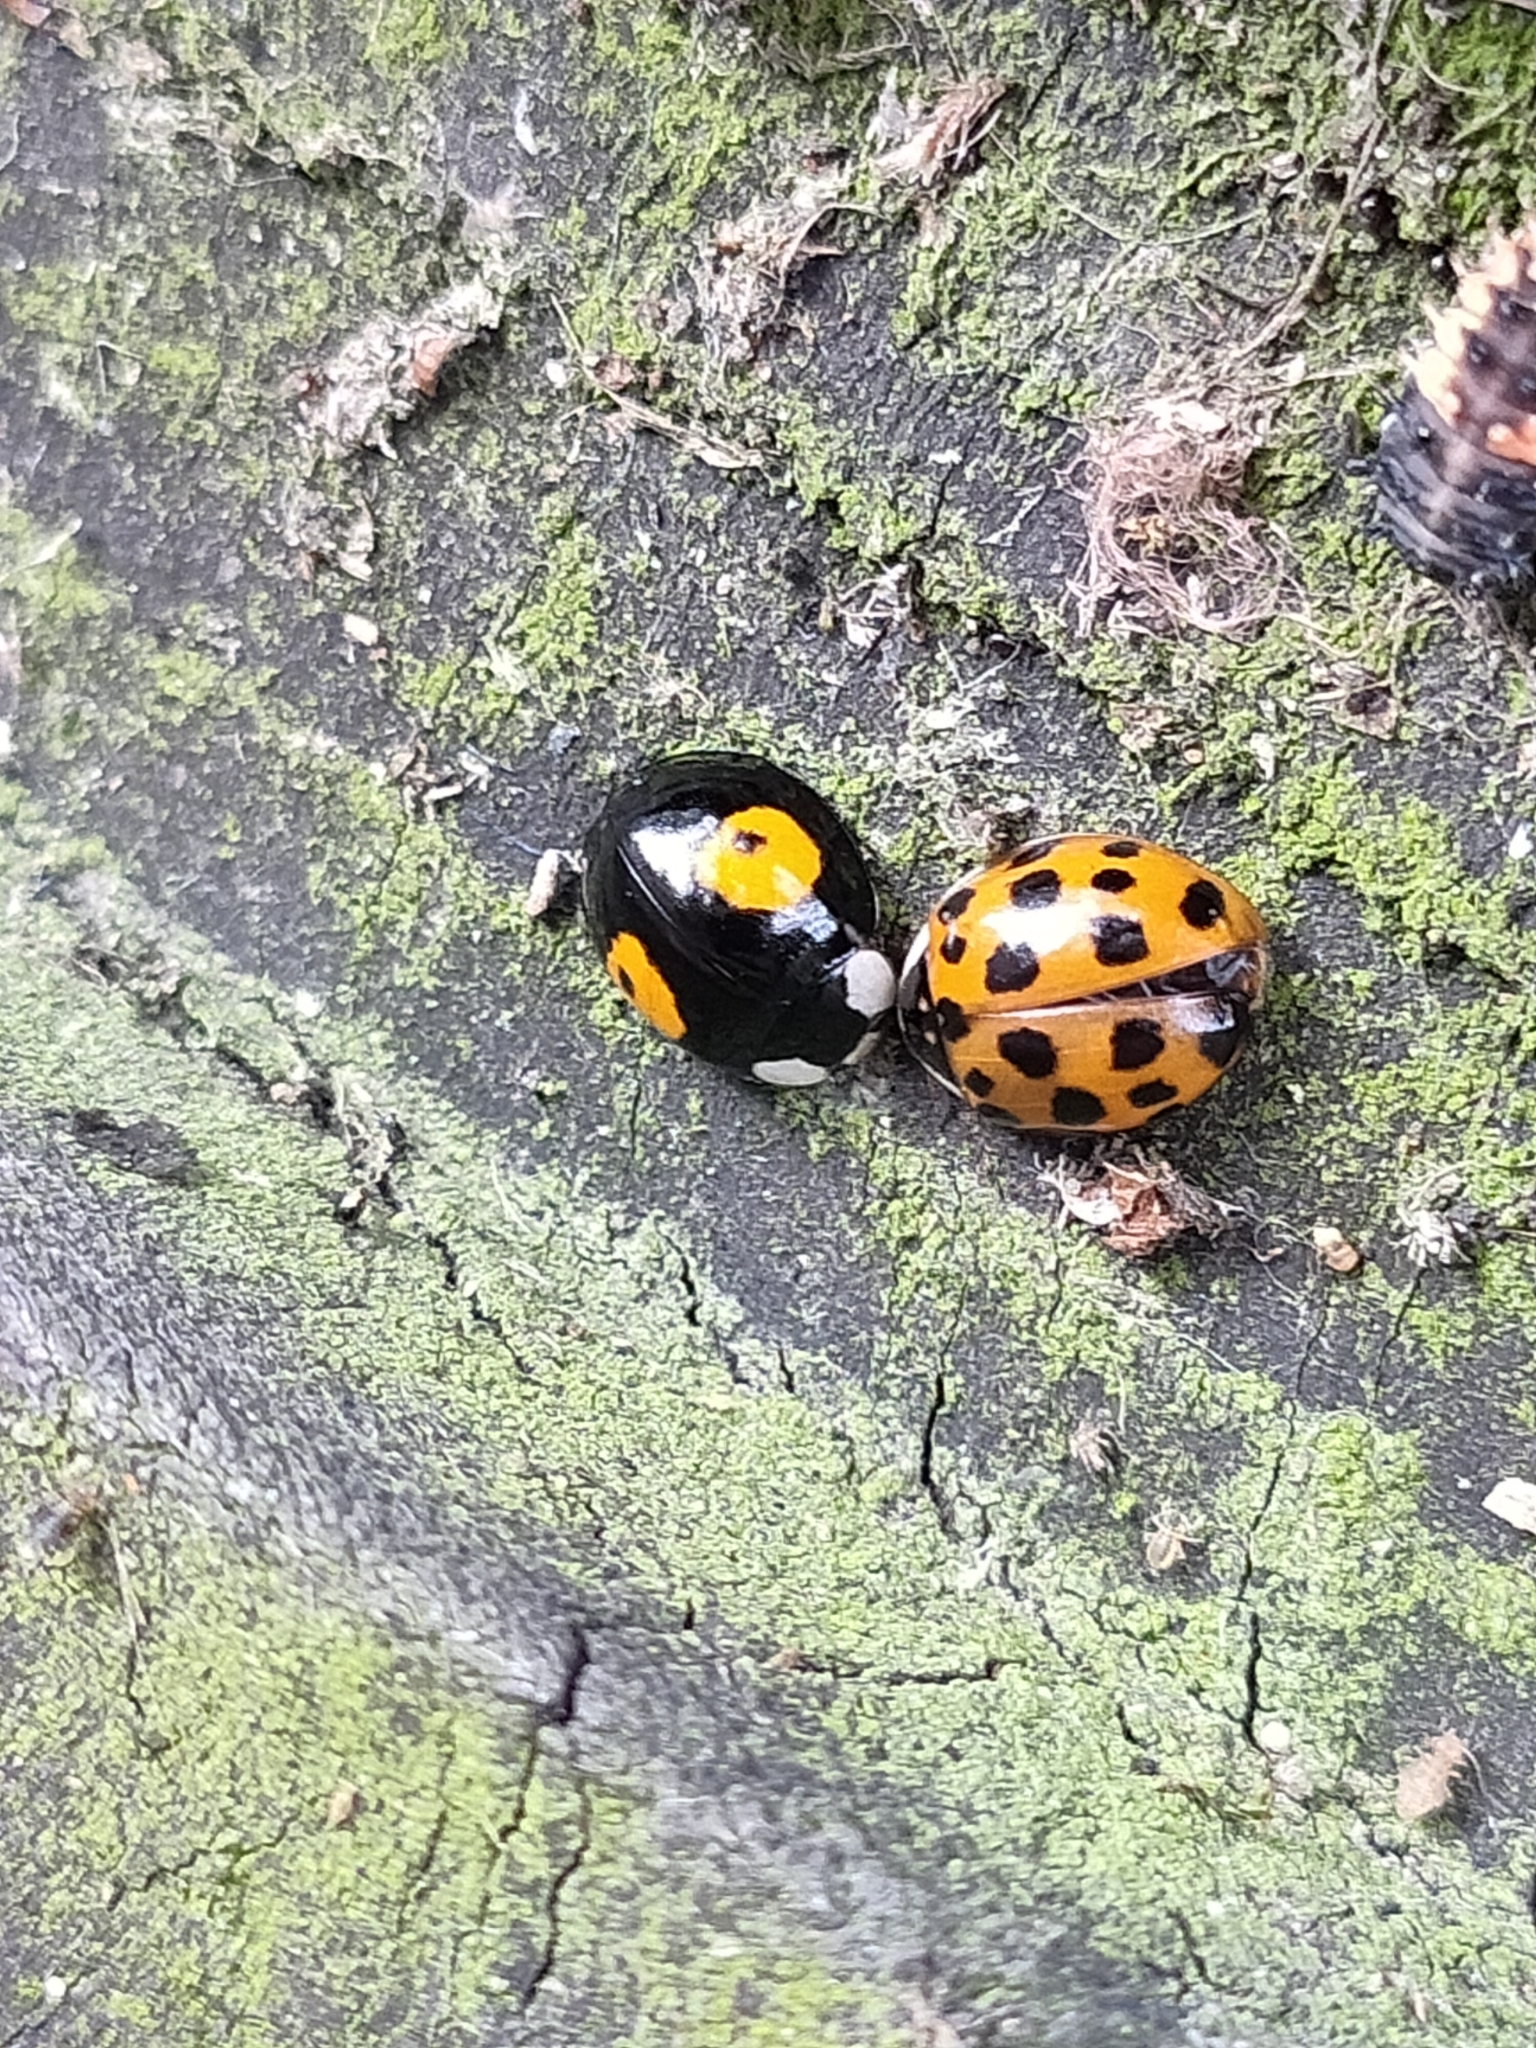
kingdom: Animalia
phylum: Arthropoda
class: Insecta
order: Coleoptera
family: Coccinellidae
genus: Harmonia
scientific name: Harmonia axyridis
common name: Harlequin ladybird
